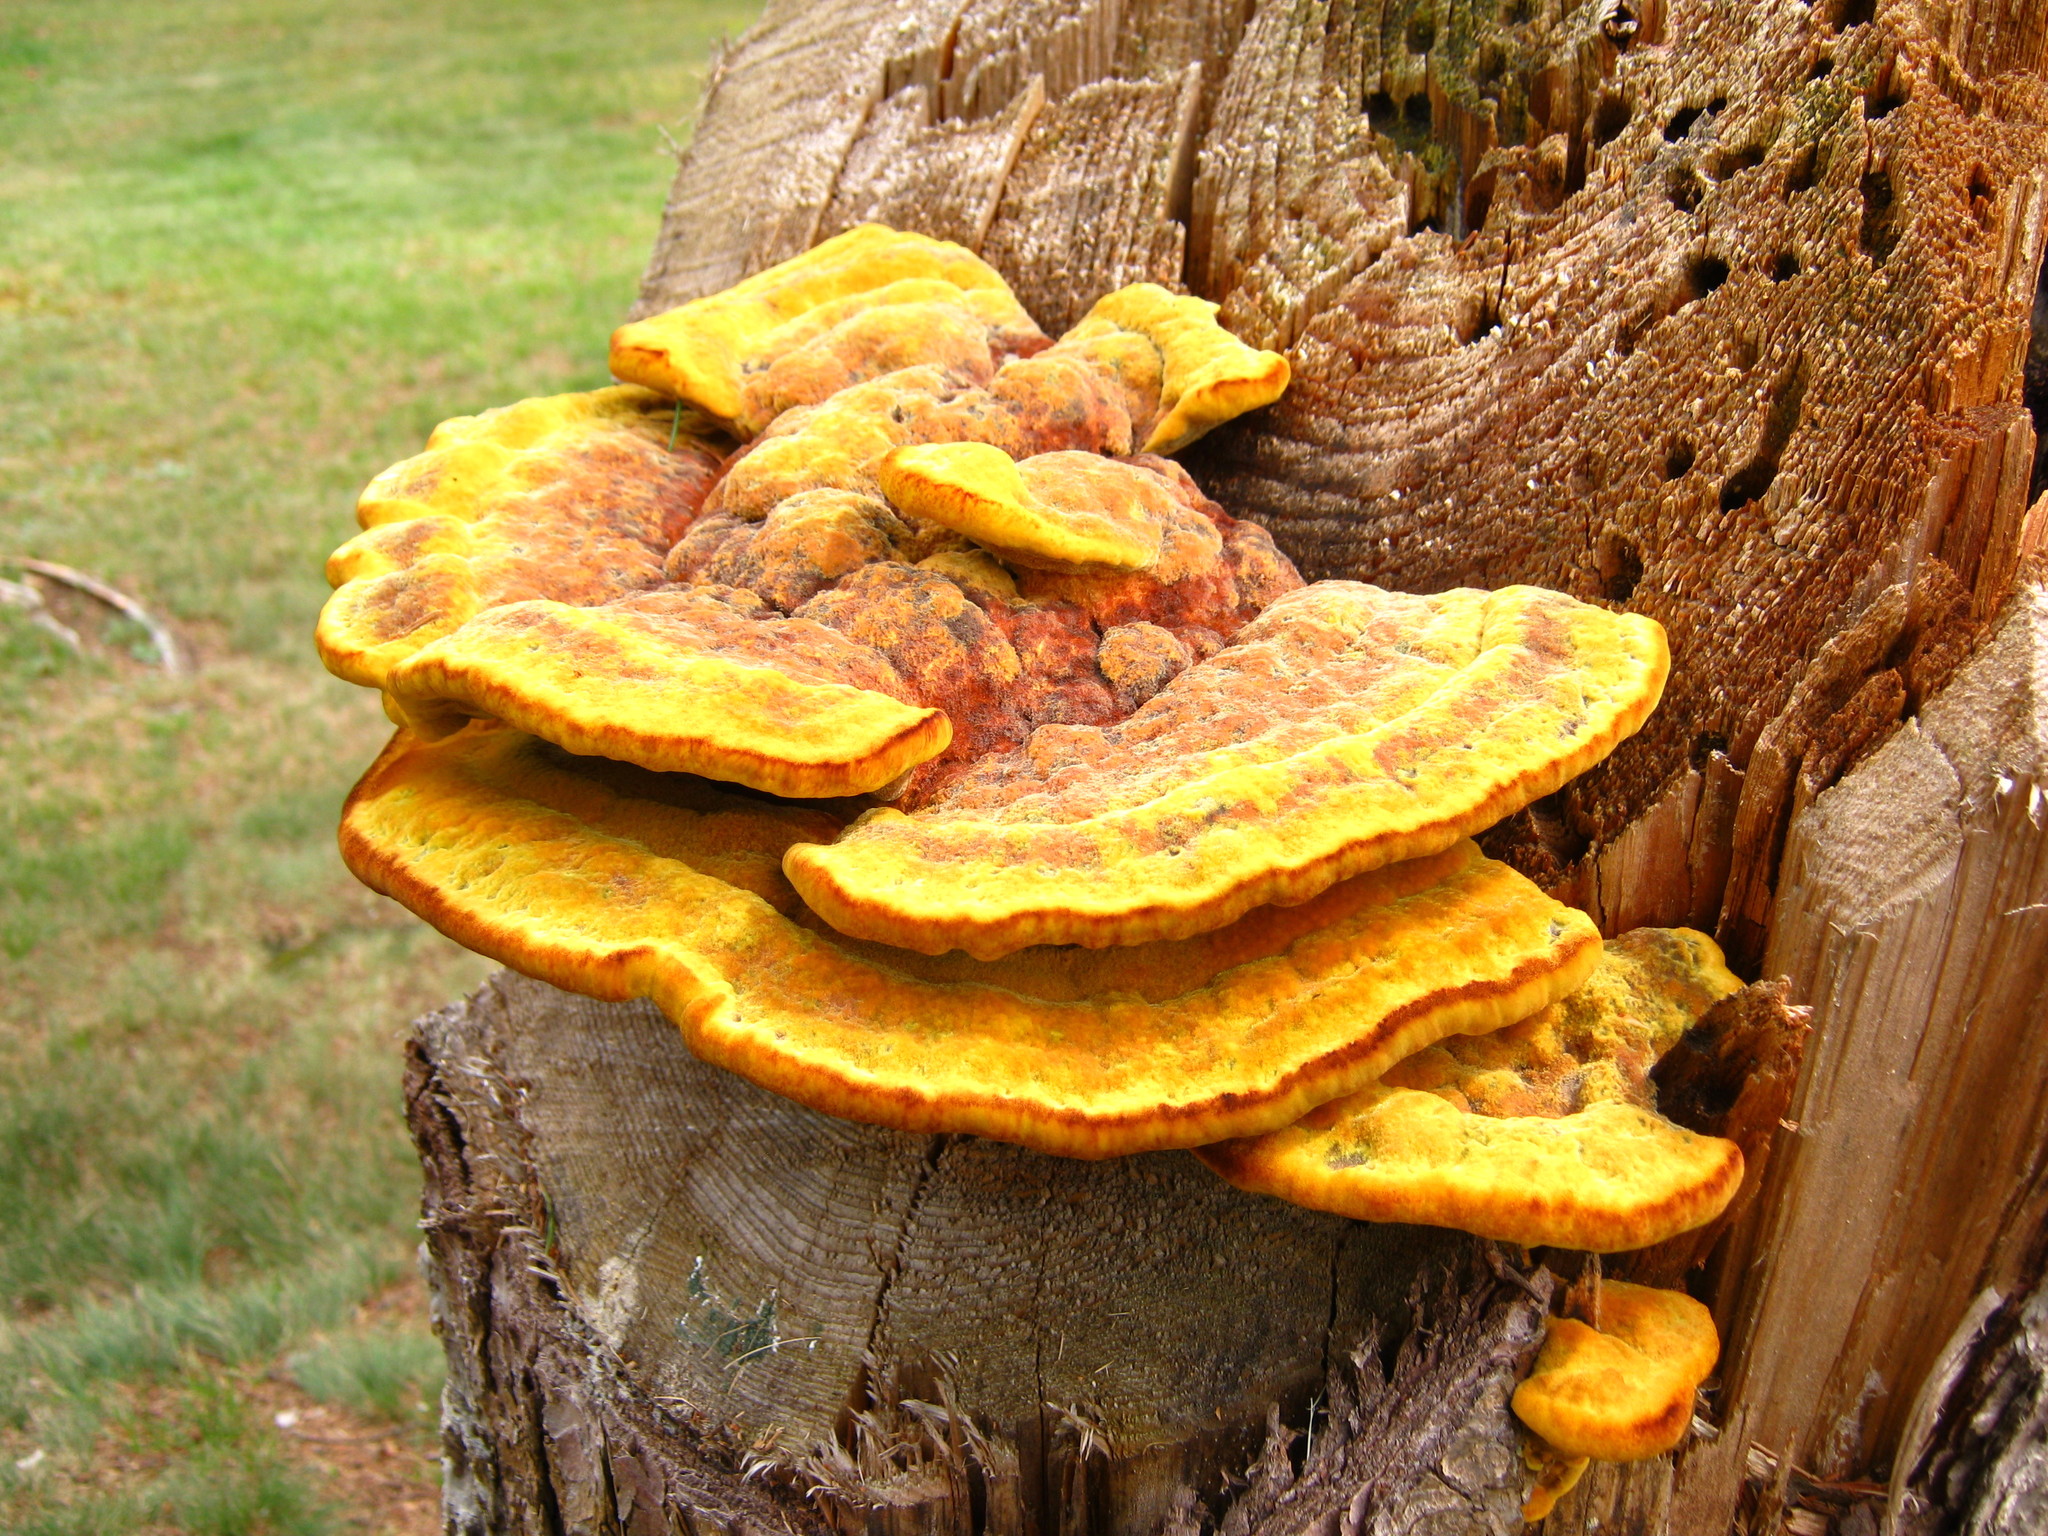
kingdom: Fungi
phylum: Basidiomycota
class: Agaricomycetes
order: Polyporales
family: Laetiporaceae
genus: Phaeolus
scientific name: Phaeolus schweinitzii
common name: Dyer's mazegill
